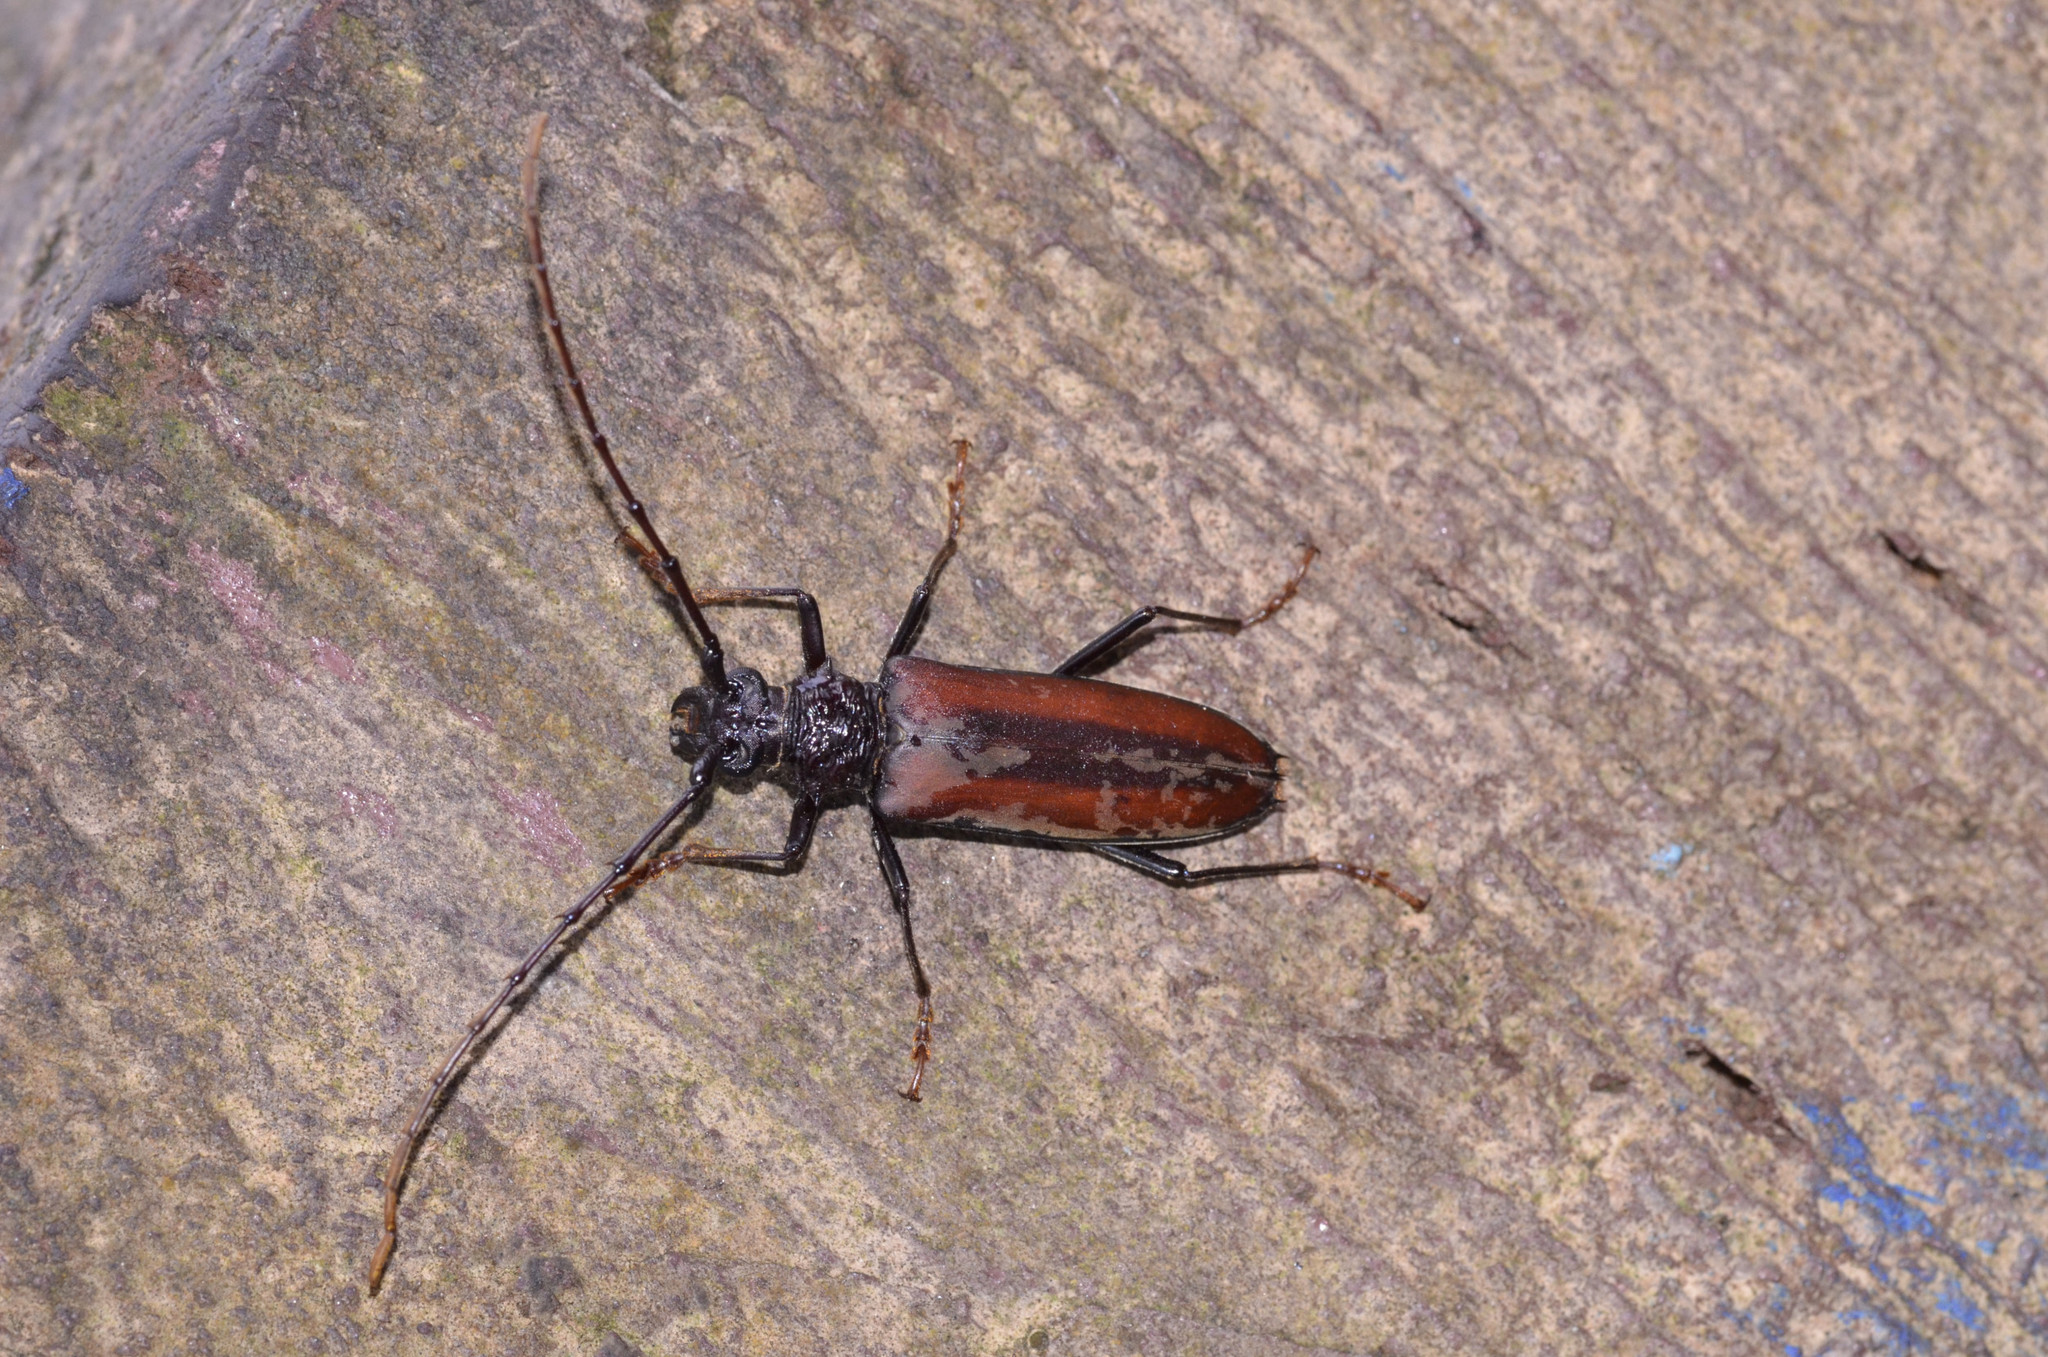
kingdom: Animalia
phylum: Arthropoda
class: Insecta
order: Coleoptera
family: Cerambycidae
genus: Bothrocerambyx
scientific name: Bothrocerambyx nevermanni
